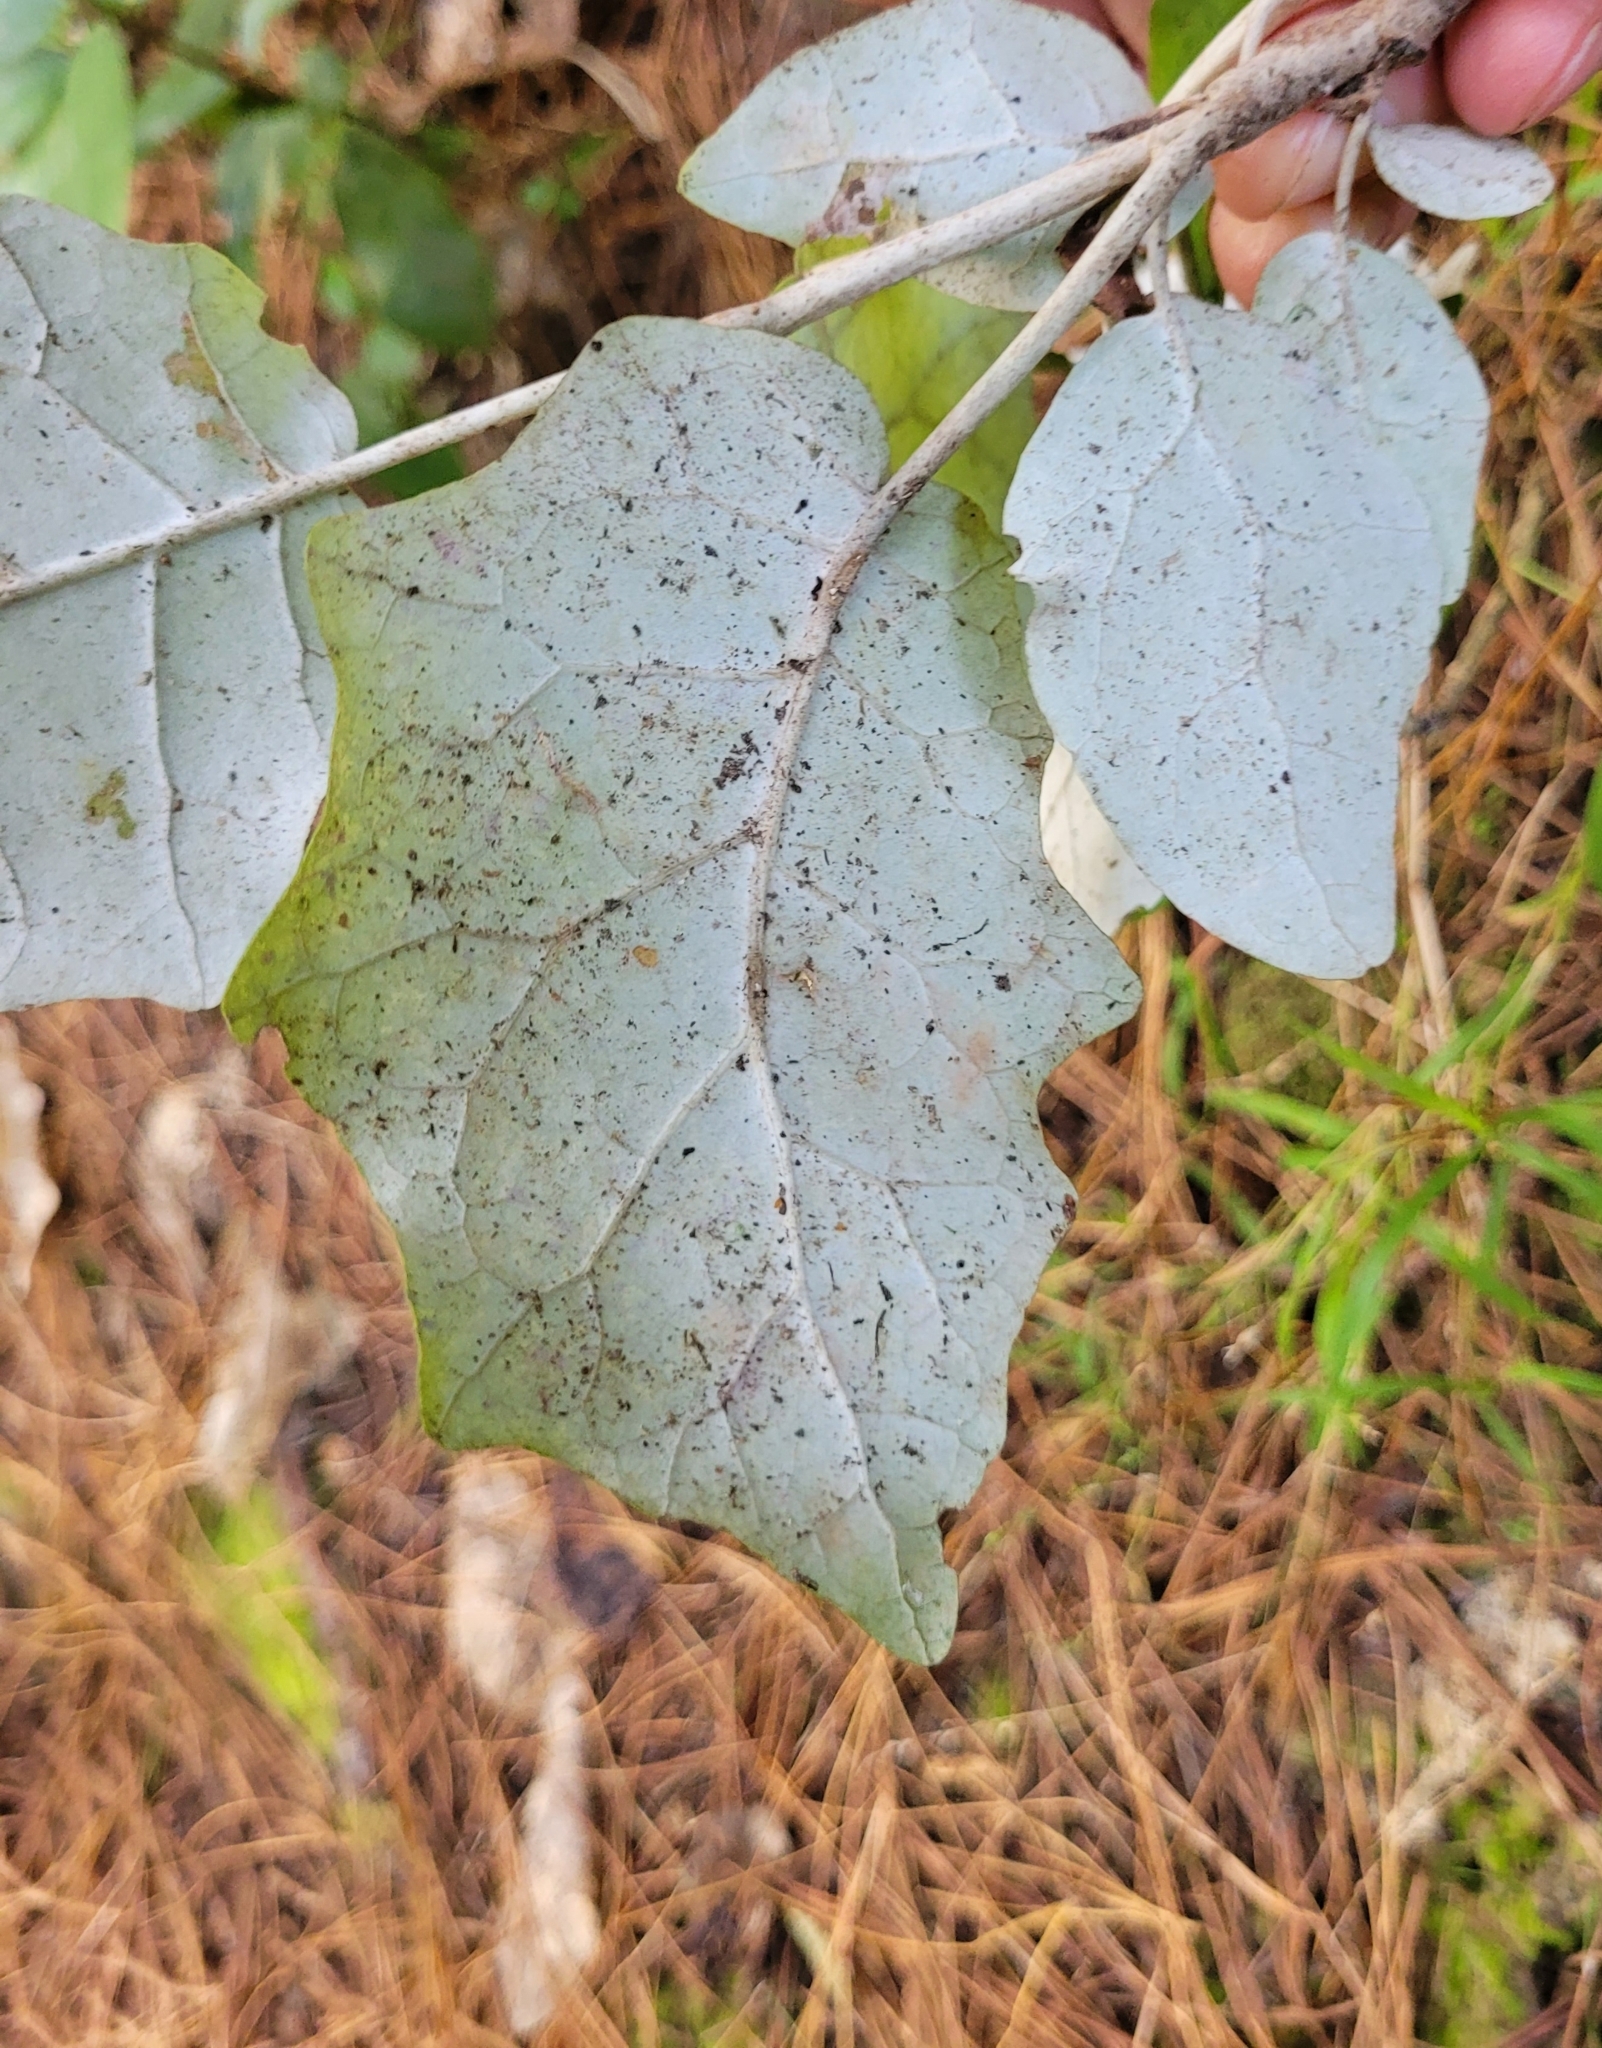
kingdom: Plantae
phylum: Tracheophyta
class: Magnoliopsida
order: Asterales
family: Asteraceae
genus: Brachyglottis
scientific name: Brachyglottis repanda
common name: Hedge ragwort
